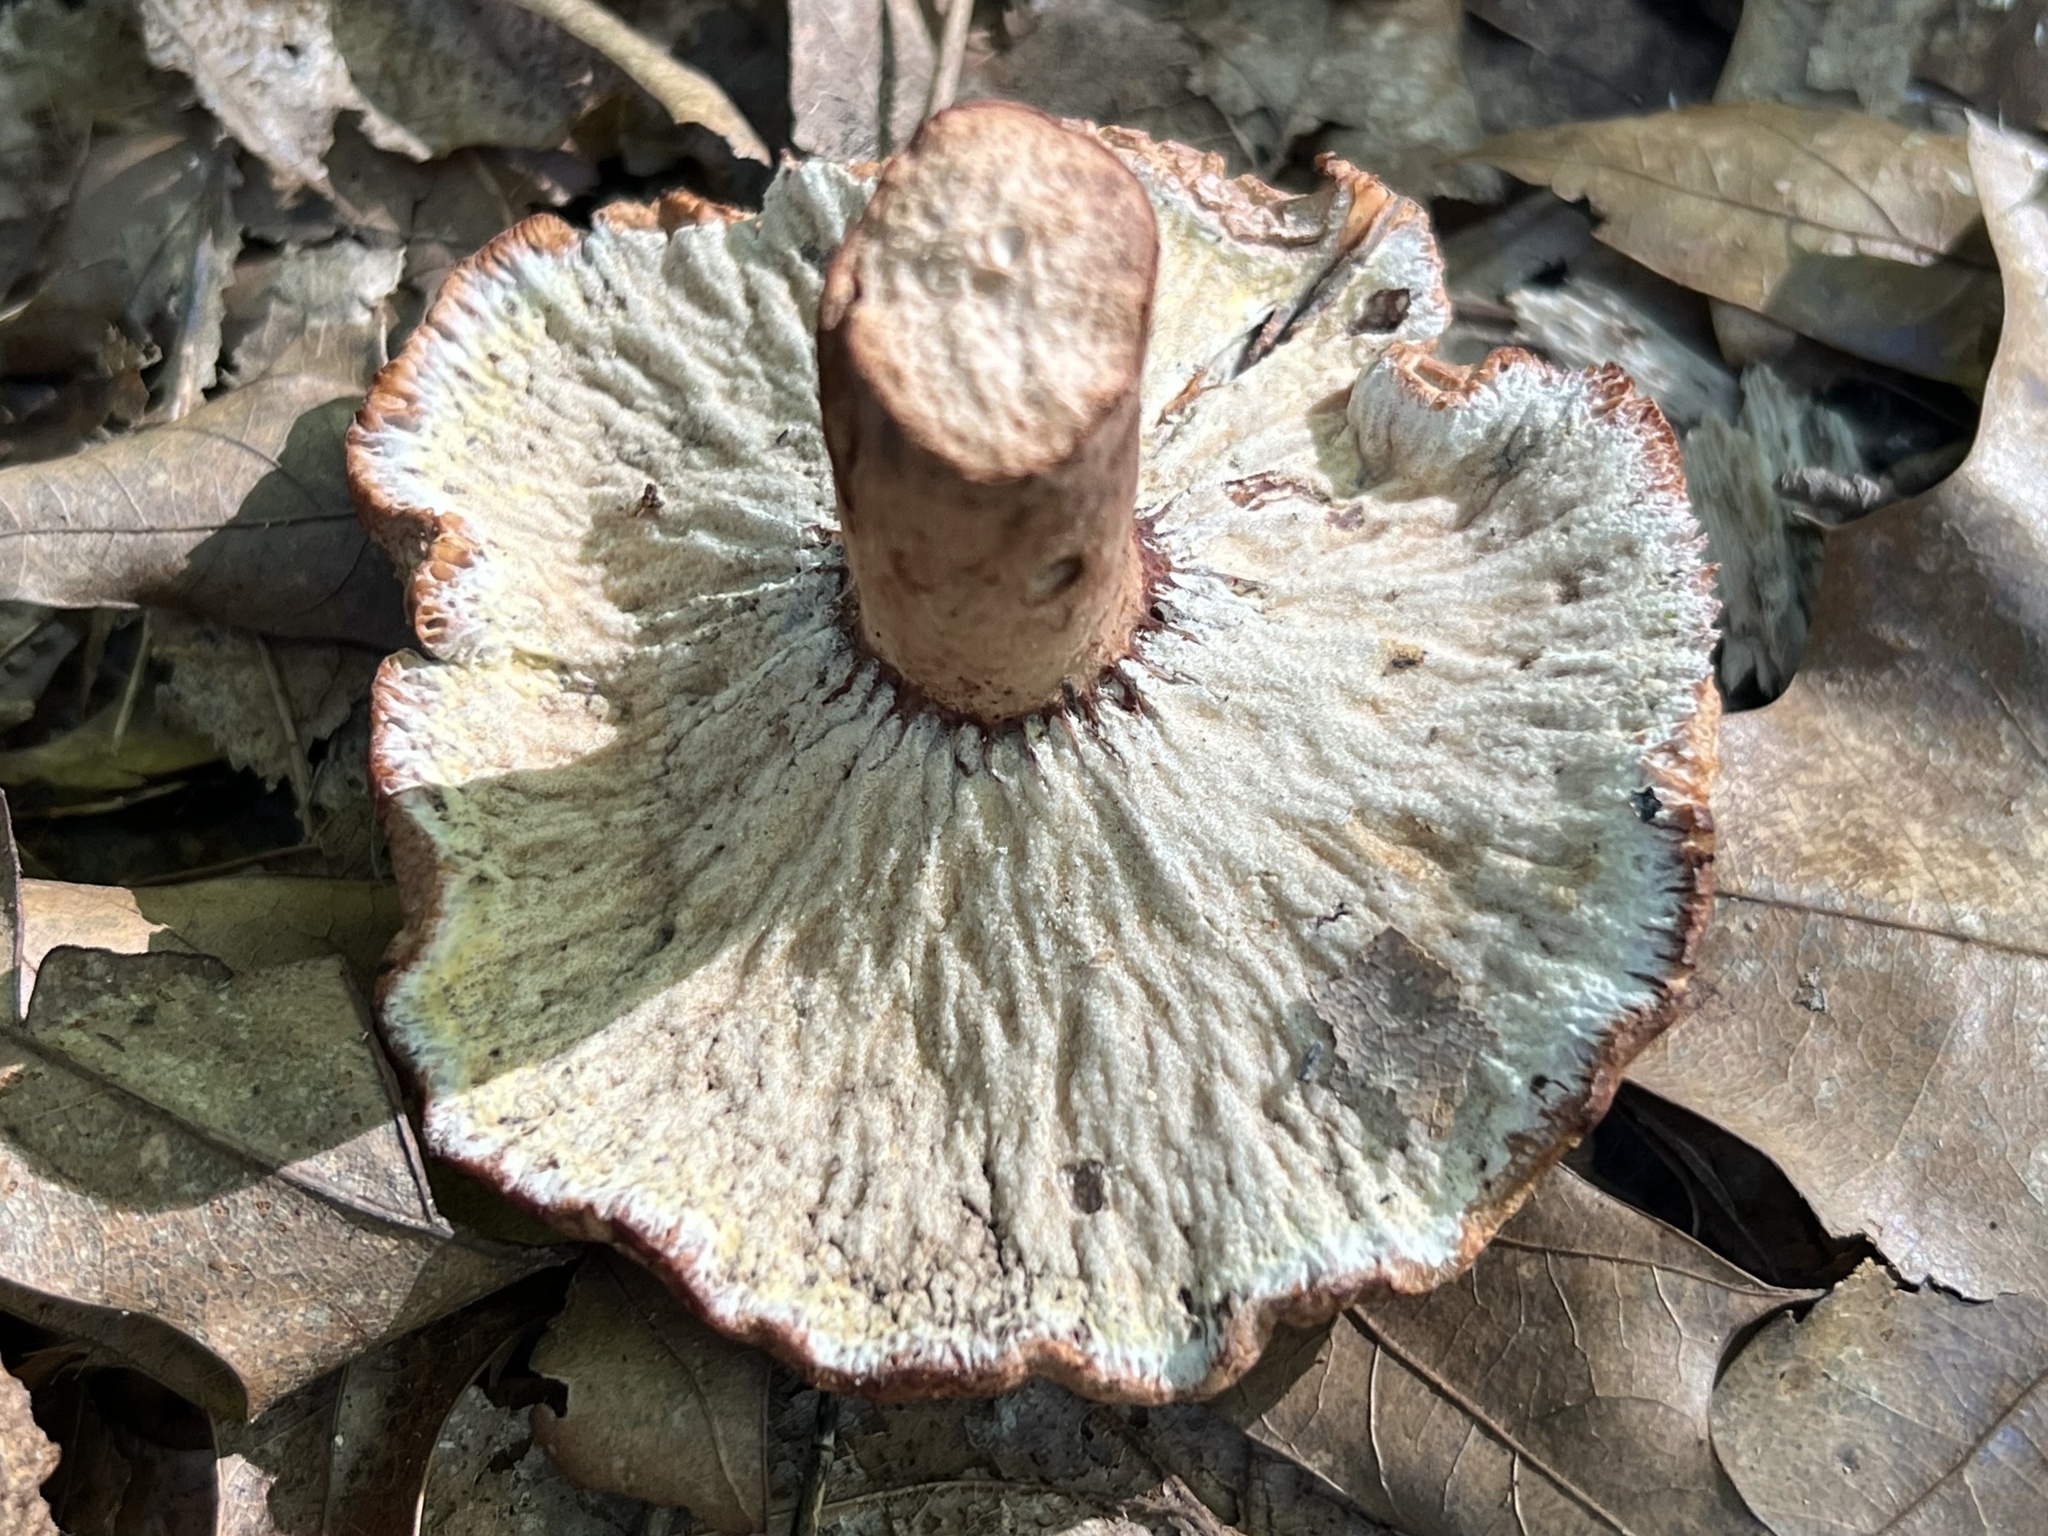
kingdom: Fungi
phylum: Ascomycota
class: Sordariomycetes
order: Hypocreales
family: Hypocreaceae
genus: Hypomyces
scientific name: Hypomyces lateritius
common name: Ochre gillgobbler
